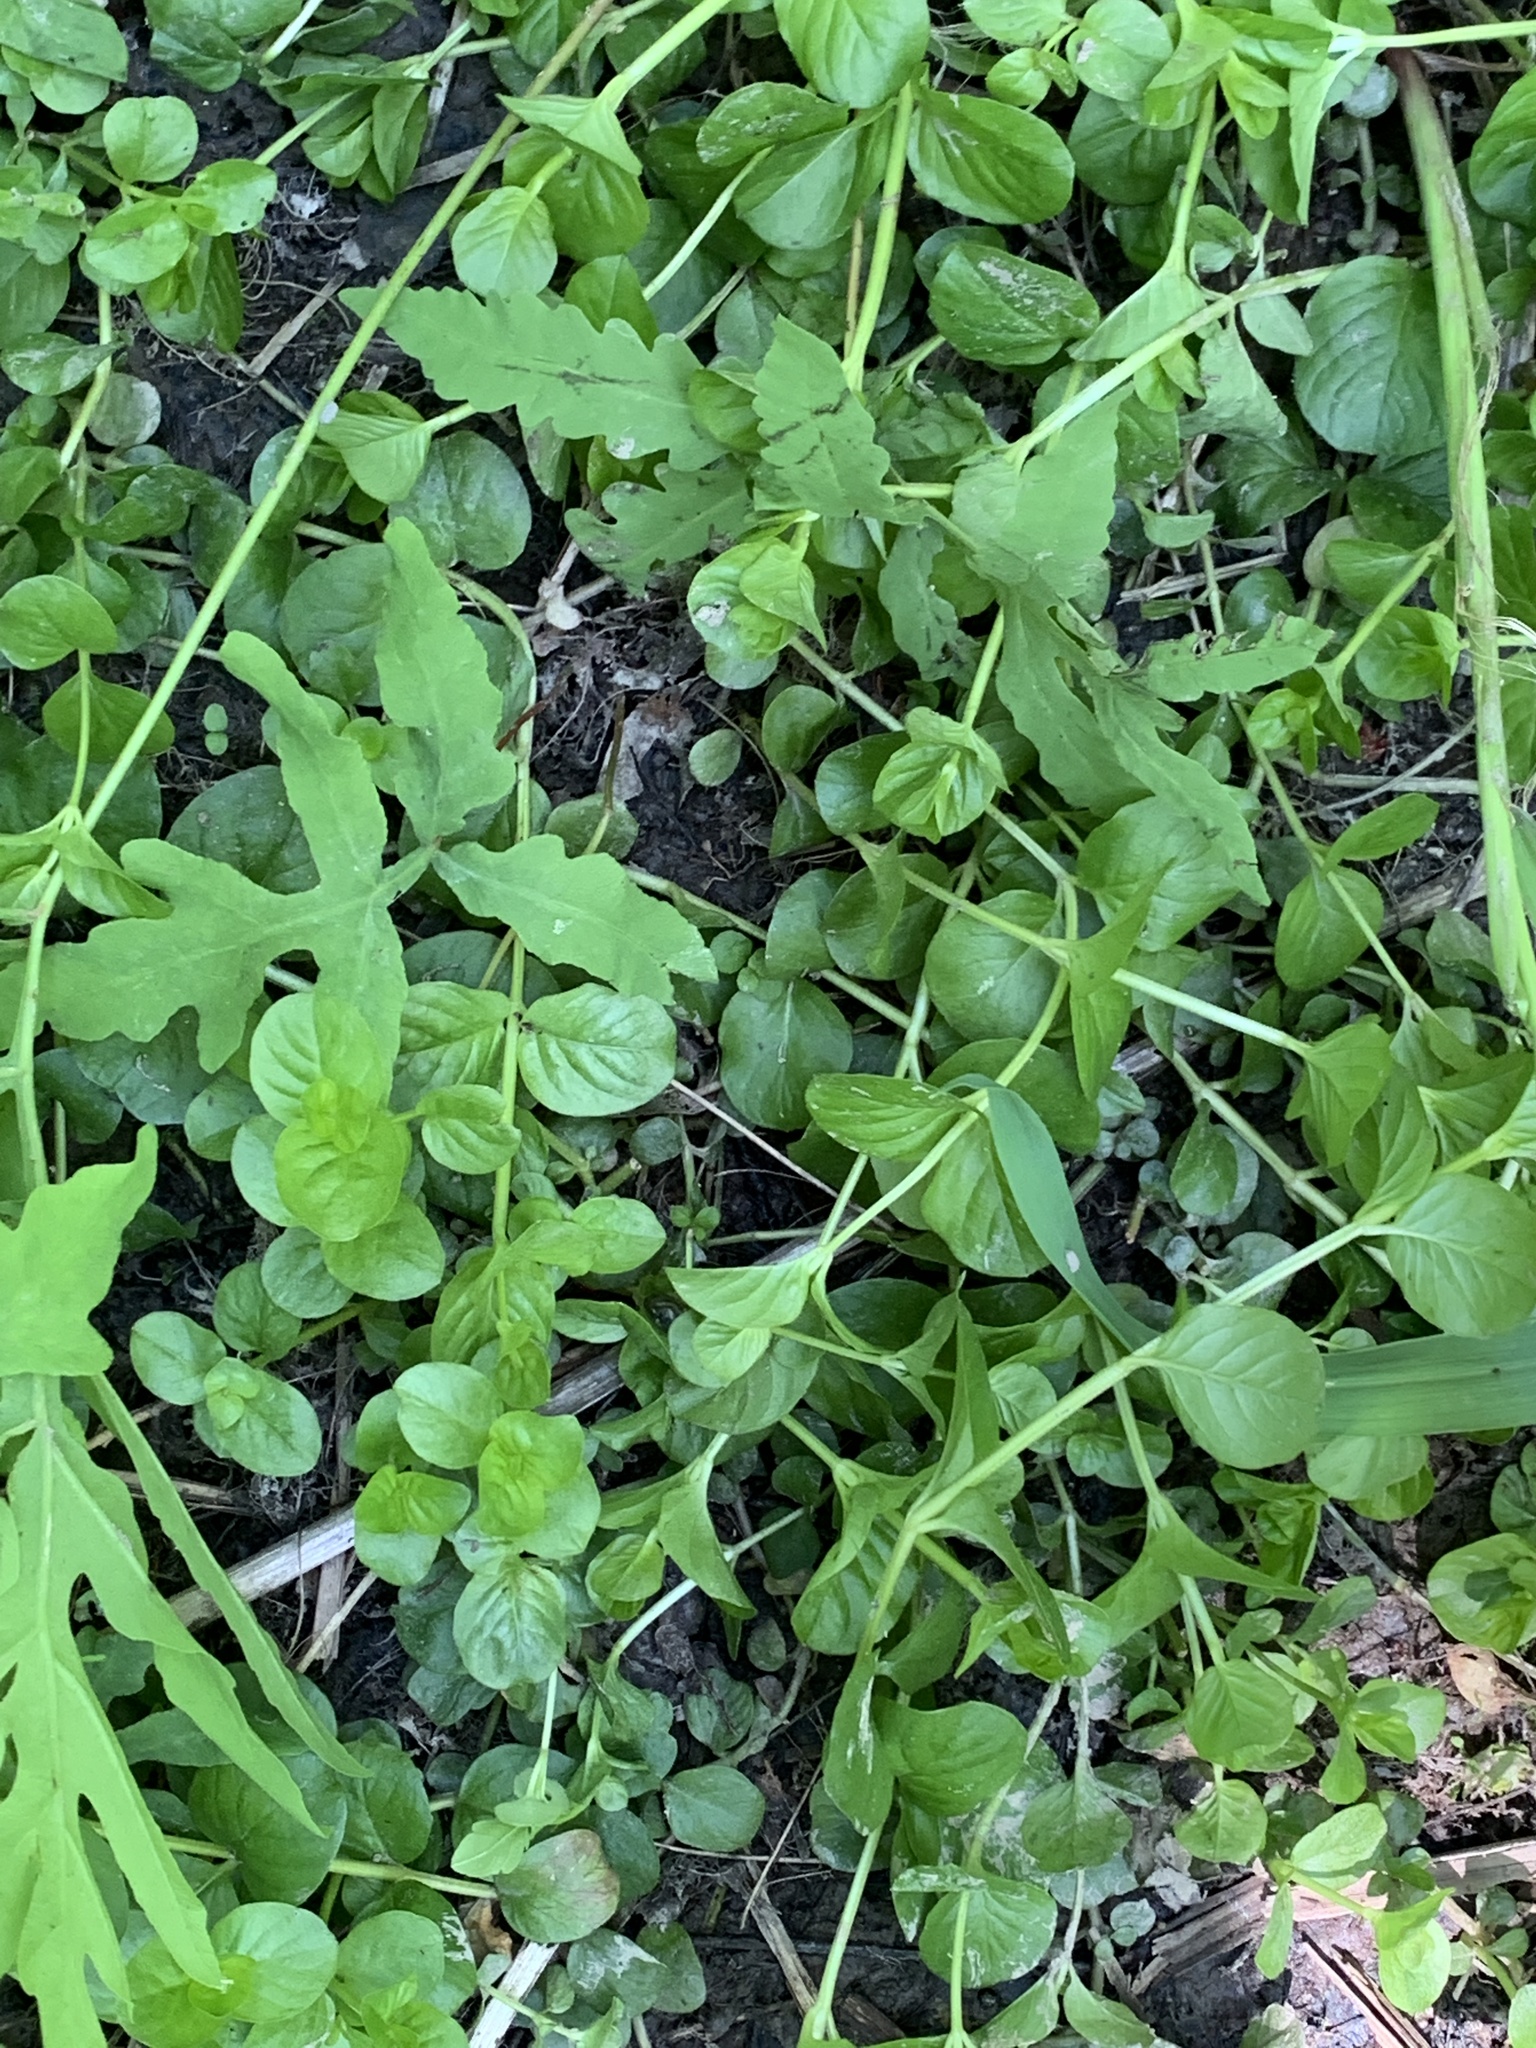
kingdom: Plantae
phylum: Tracheophyta
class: Magnoliopsida
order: Ericales
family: Primulaceae
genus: Lysimachia
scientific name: Lysimachia nummularia
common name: Moneywort
